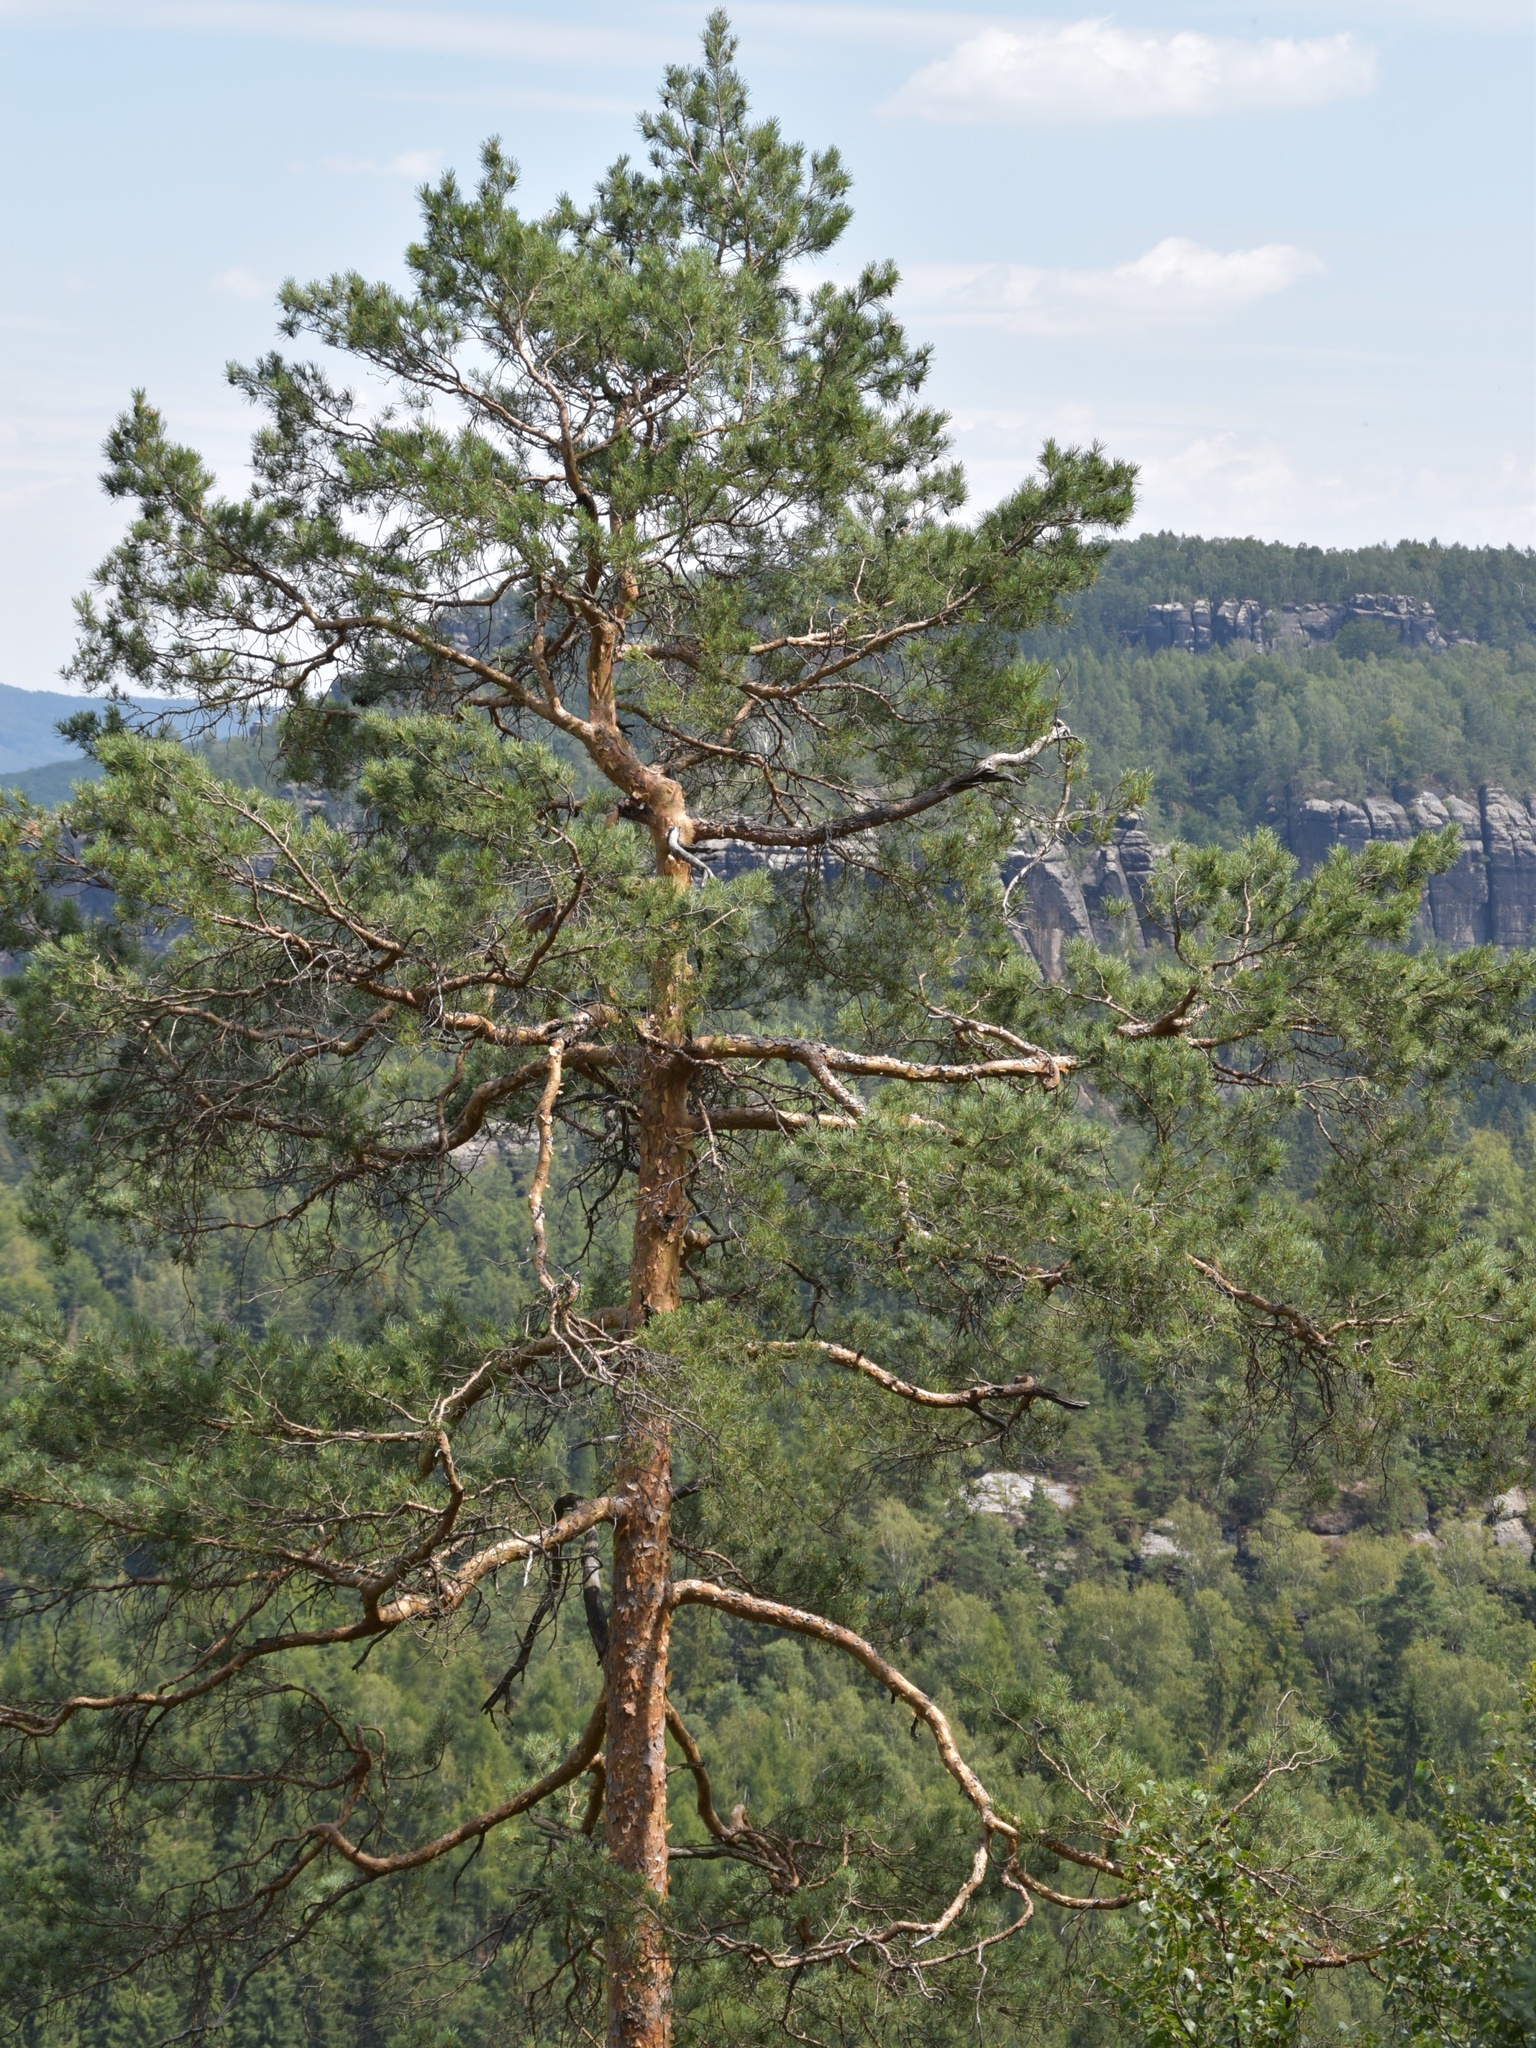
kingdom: Plantae
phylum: Tracheophyta
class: Pinopsida
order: Pinales
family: Pinaceae
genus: Pinus
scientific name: Pinus sylvestris
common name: Scots pine
